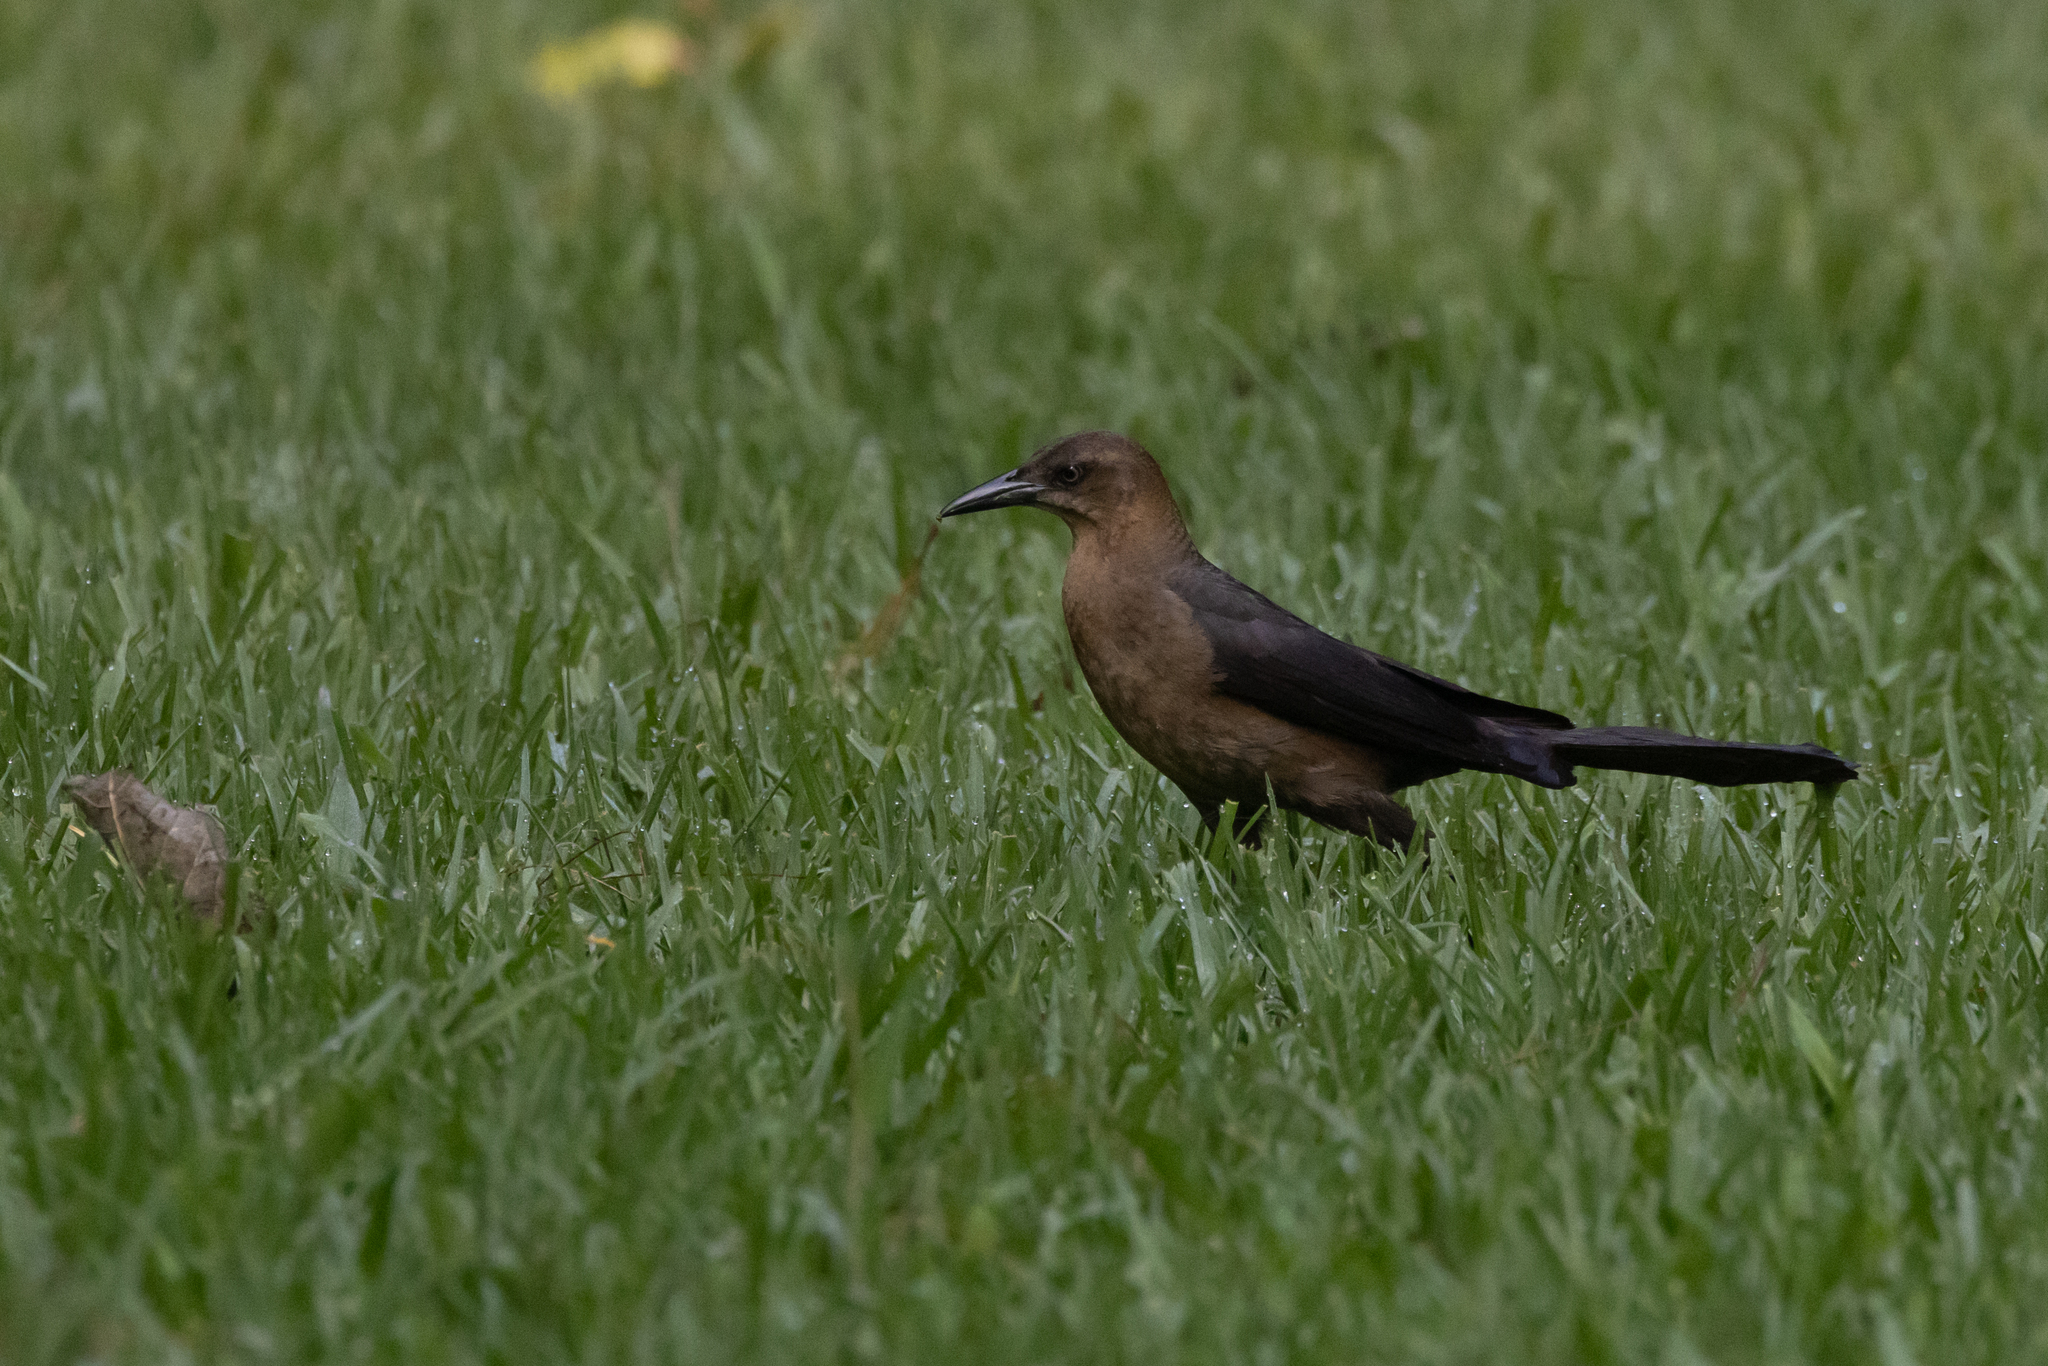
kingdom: Animalia
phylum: Chordata
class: Aves
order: Passeriformes
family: Icteridae
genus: Quiscalus
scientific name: Quiscalus mexicanus
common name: Great-tailed grackle
